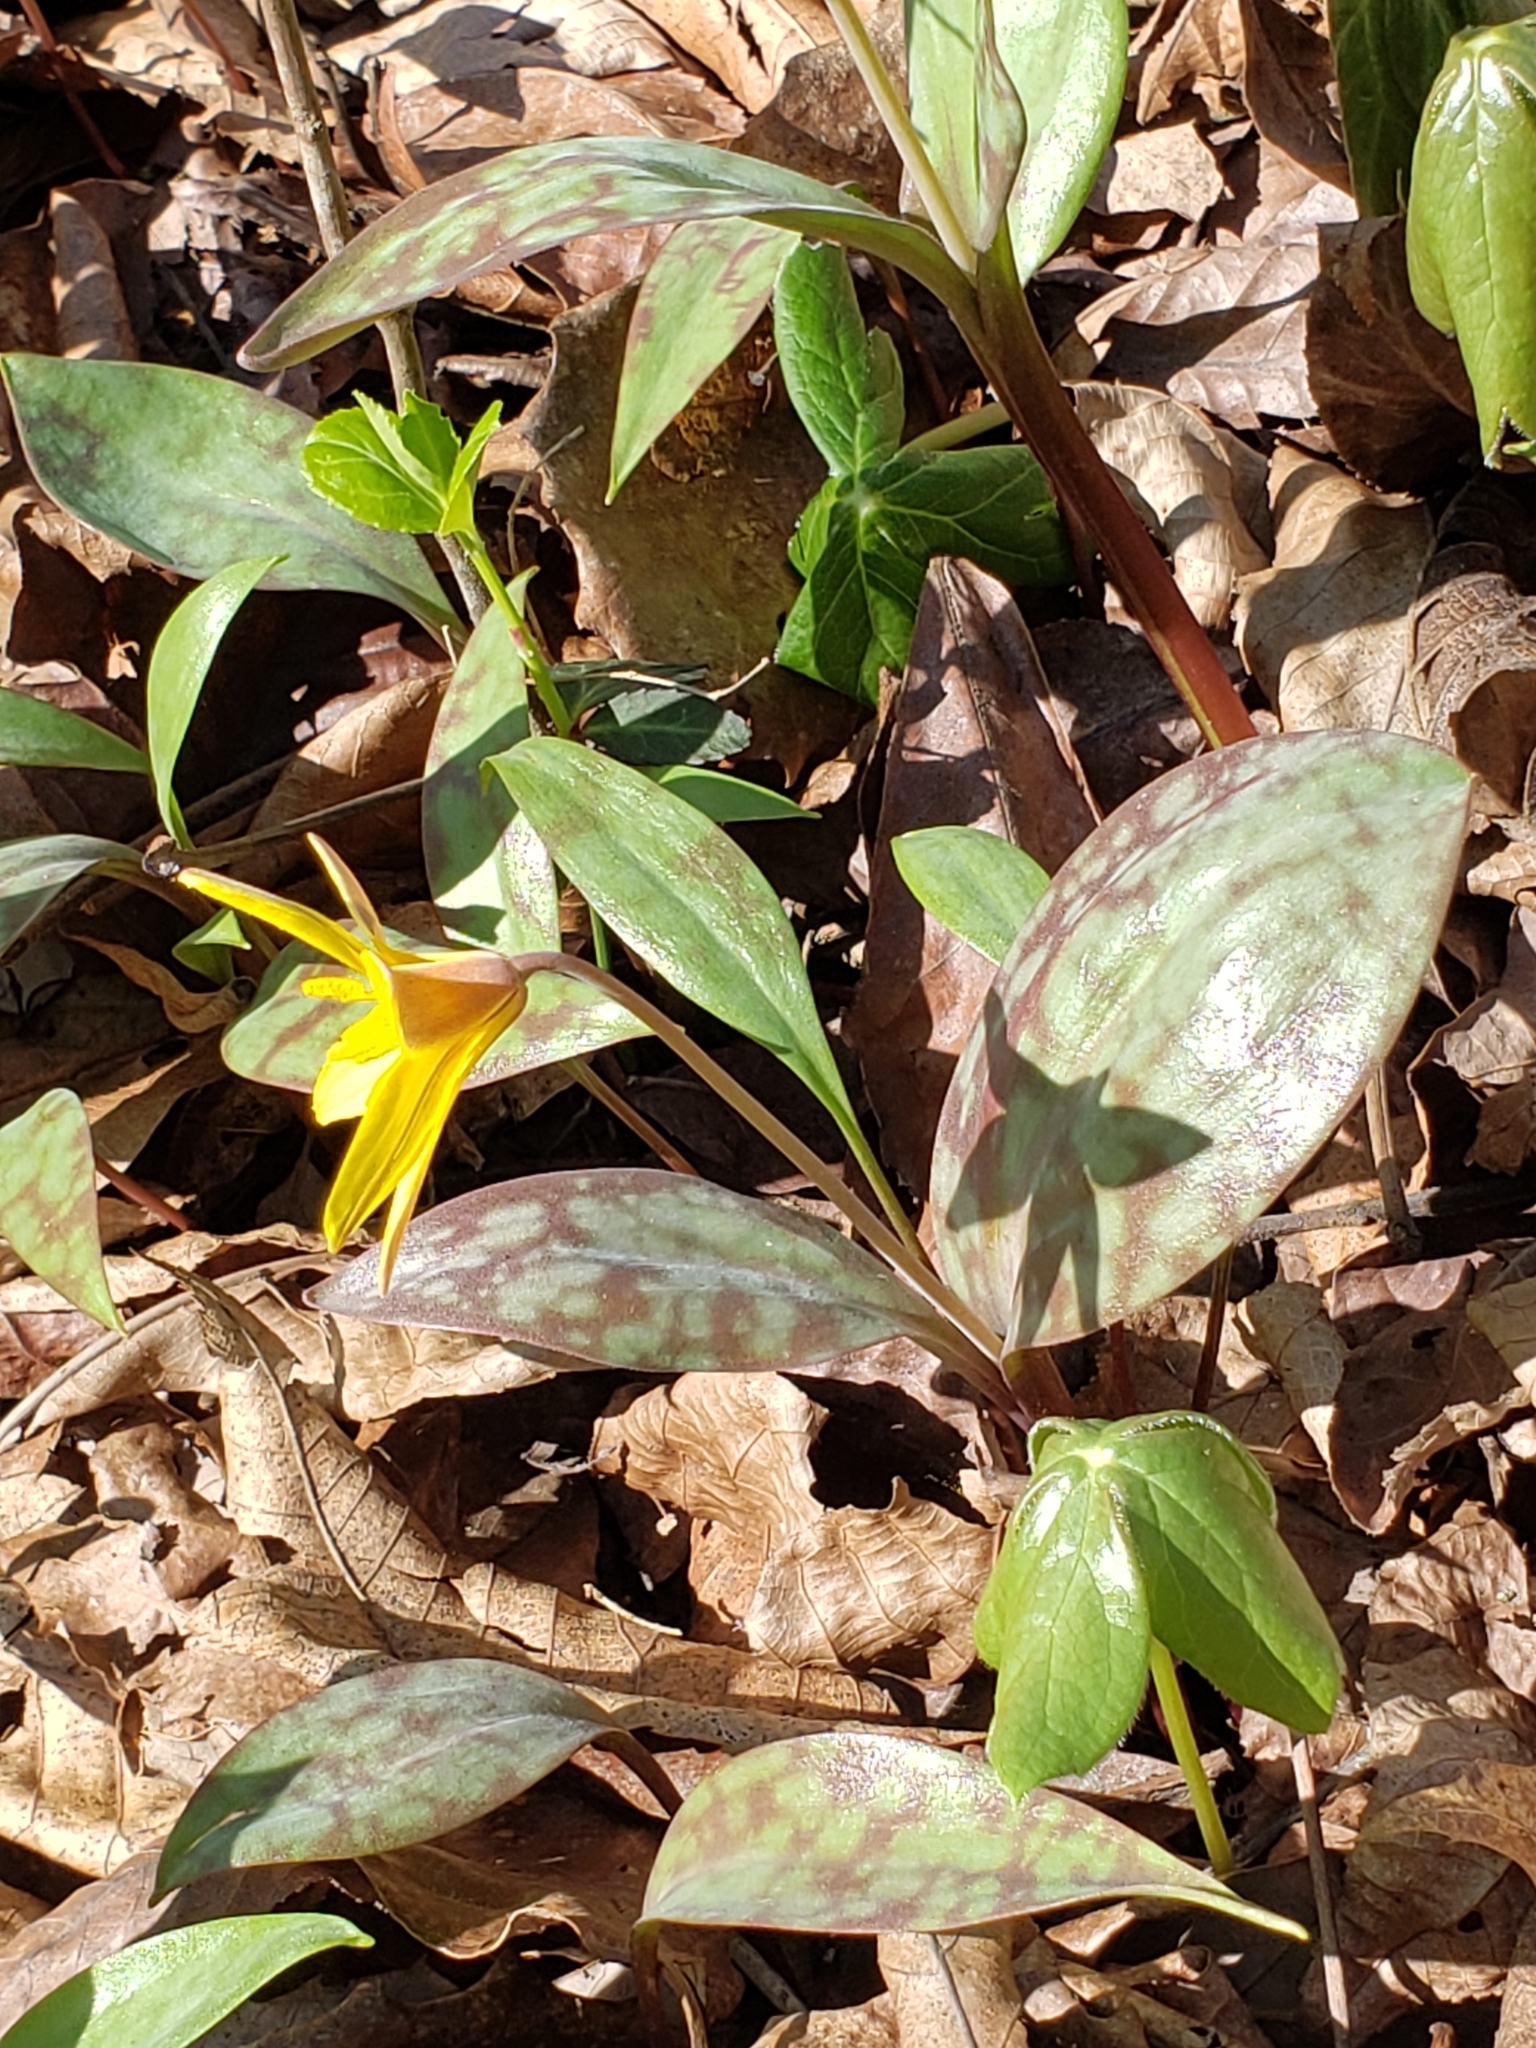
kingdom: Plantae
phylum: Tracheophyta
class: Liliopsida
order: Liliales
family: Liliaceae
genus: Erythronium
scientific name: Erythronium rostratum
